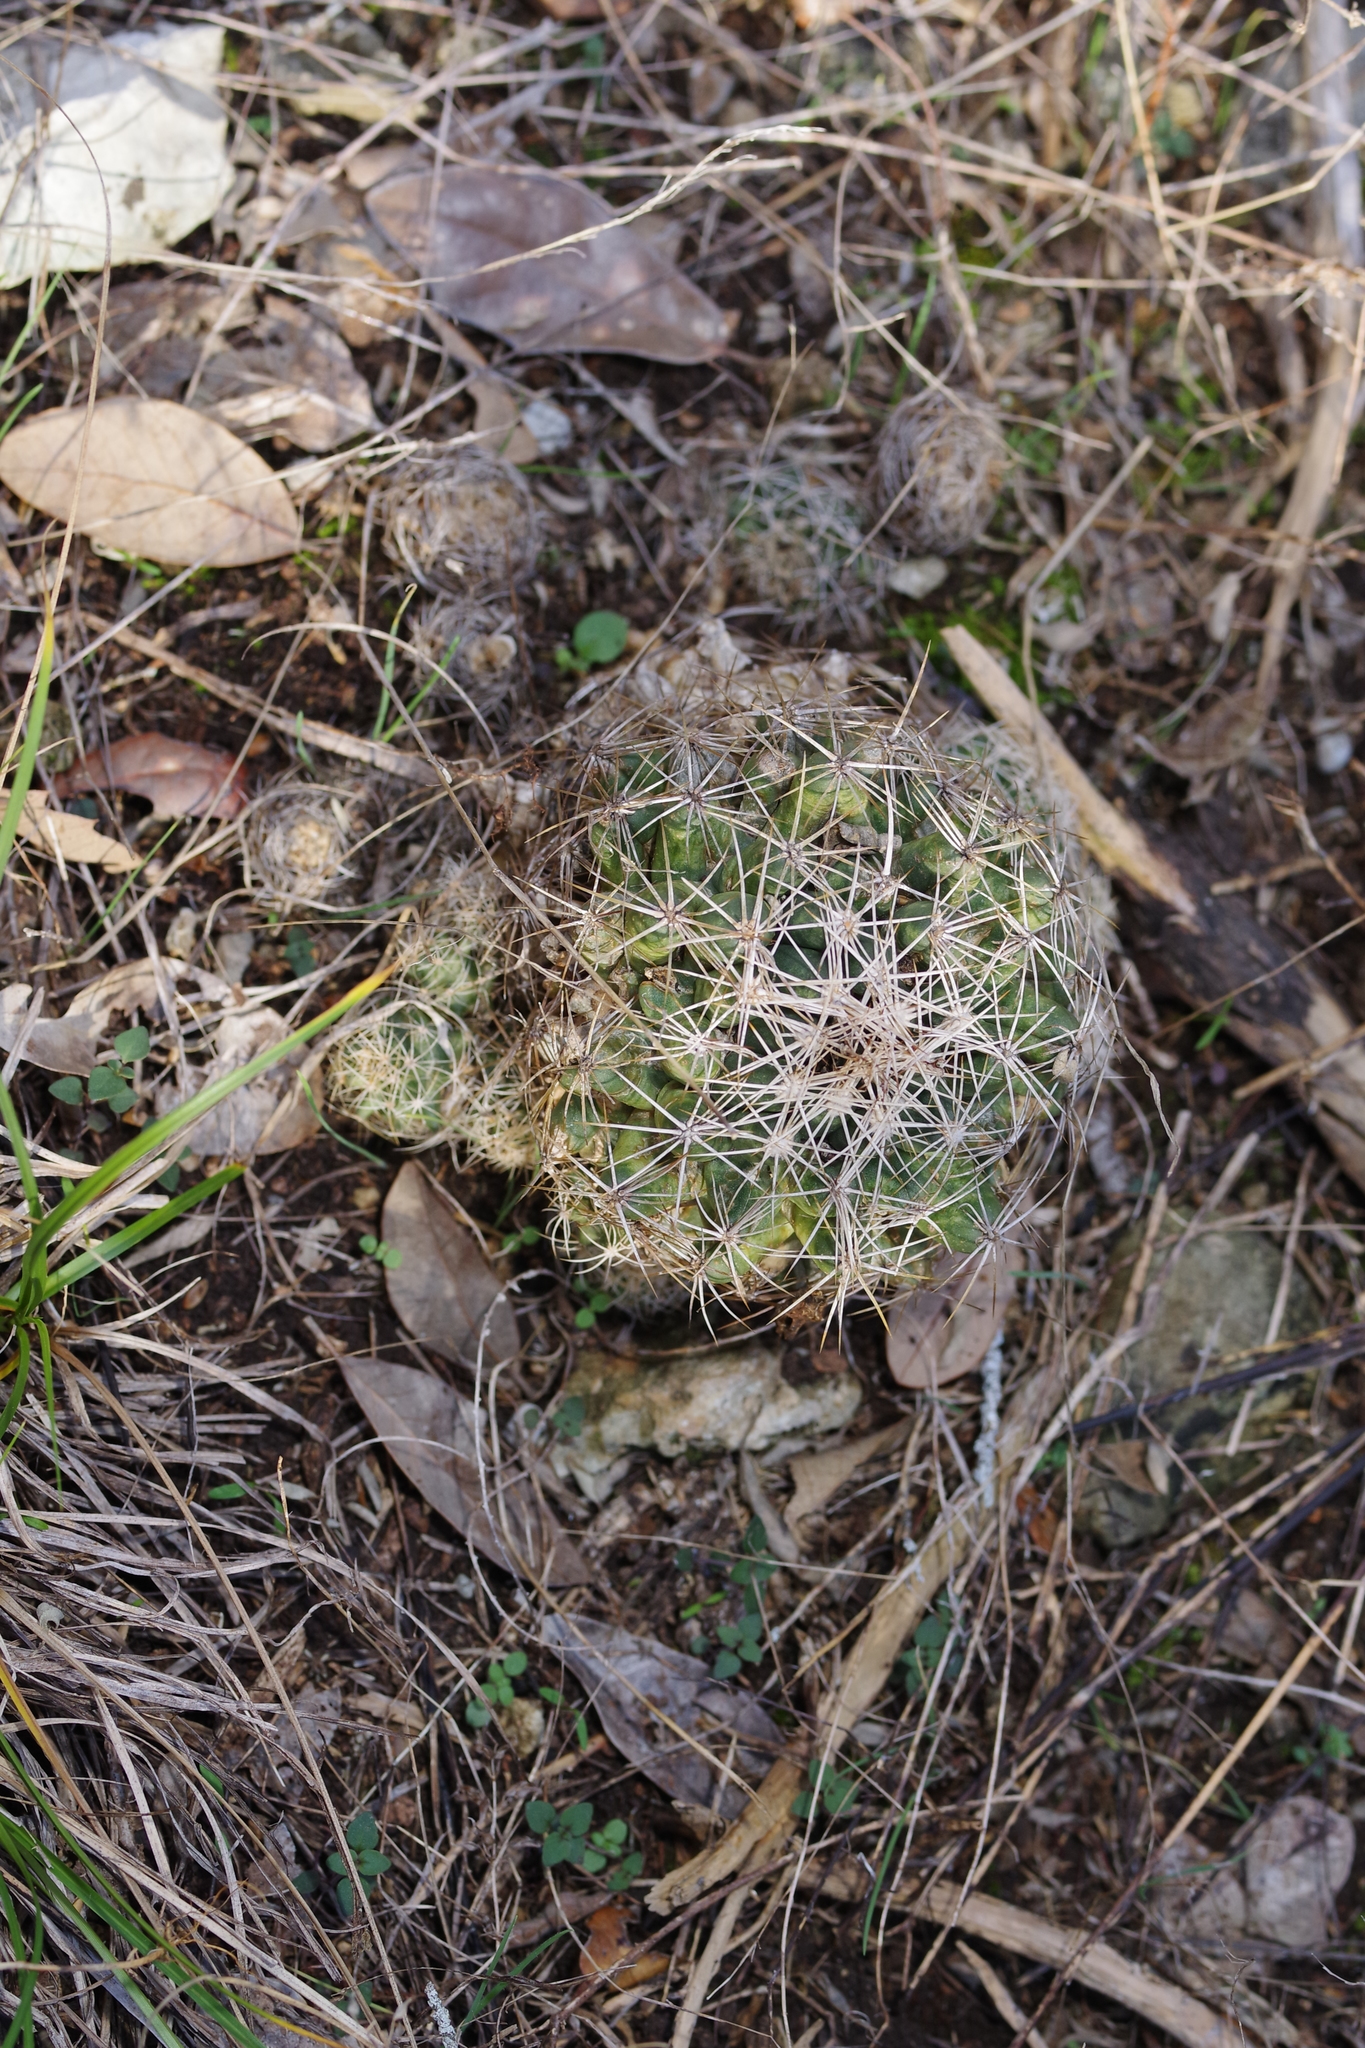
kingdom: Plantae
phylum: Tracheophyta
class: Magnoliopsida
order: Caryophyllales
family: Cactaceae
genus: Coryphantha
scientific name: Coryphantha sulcata
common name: Finger cactus
